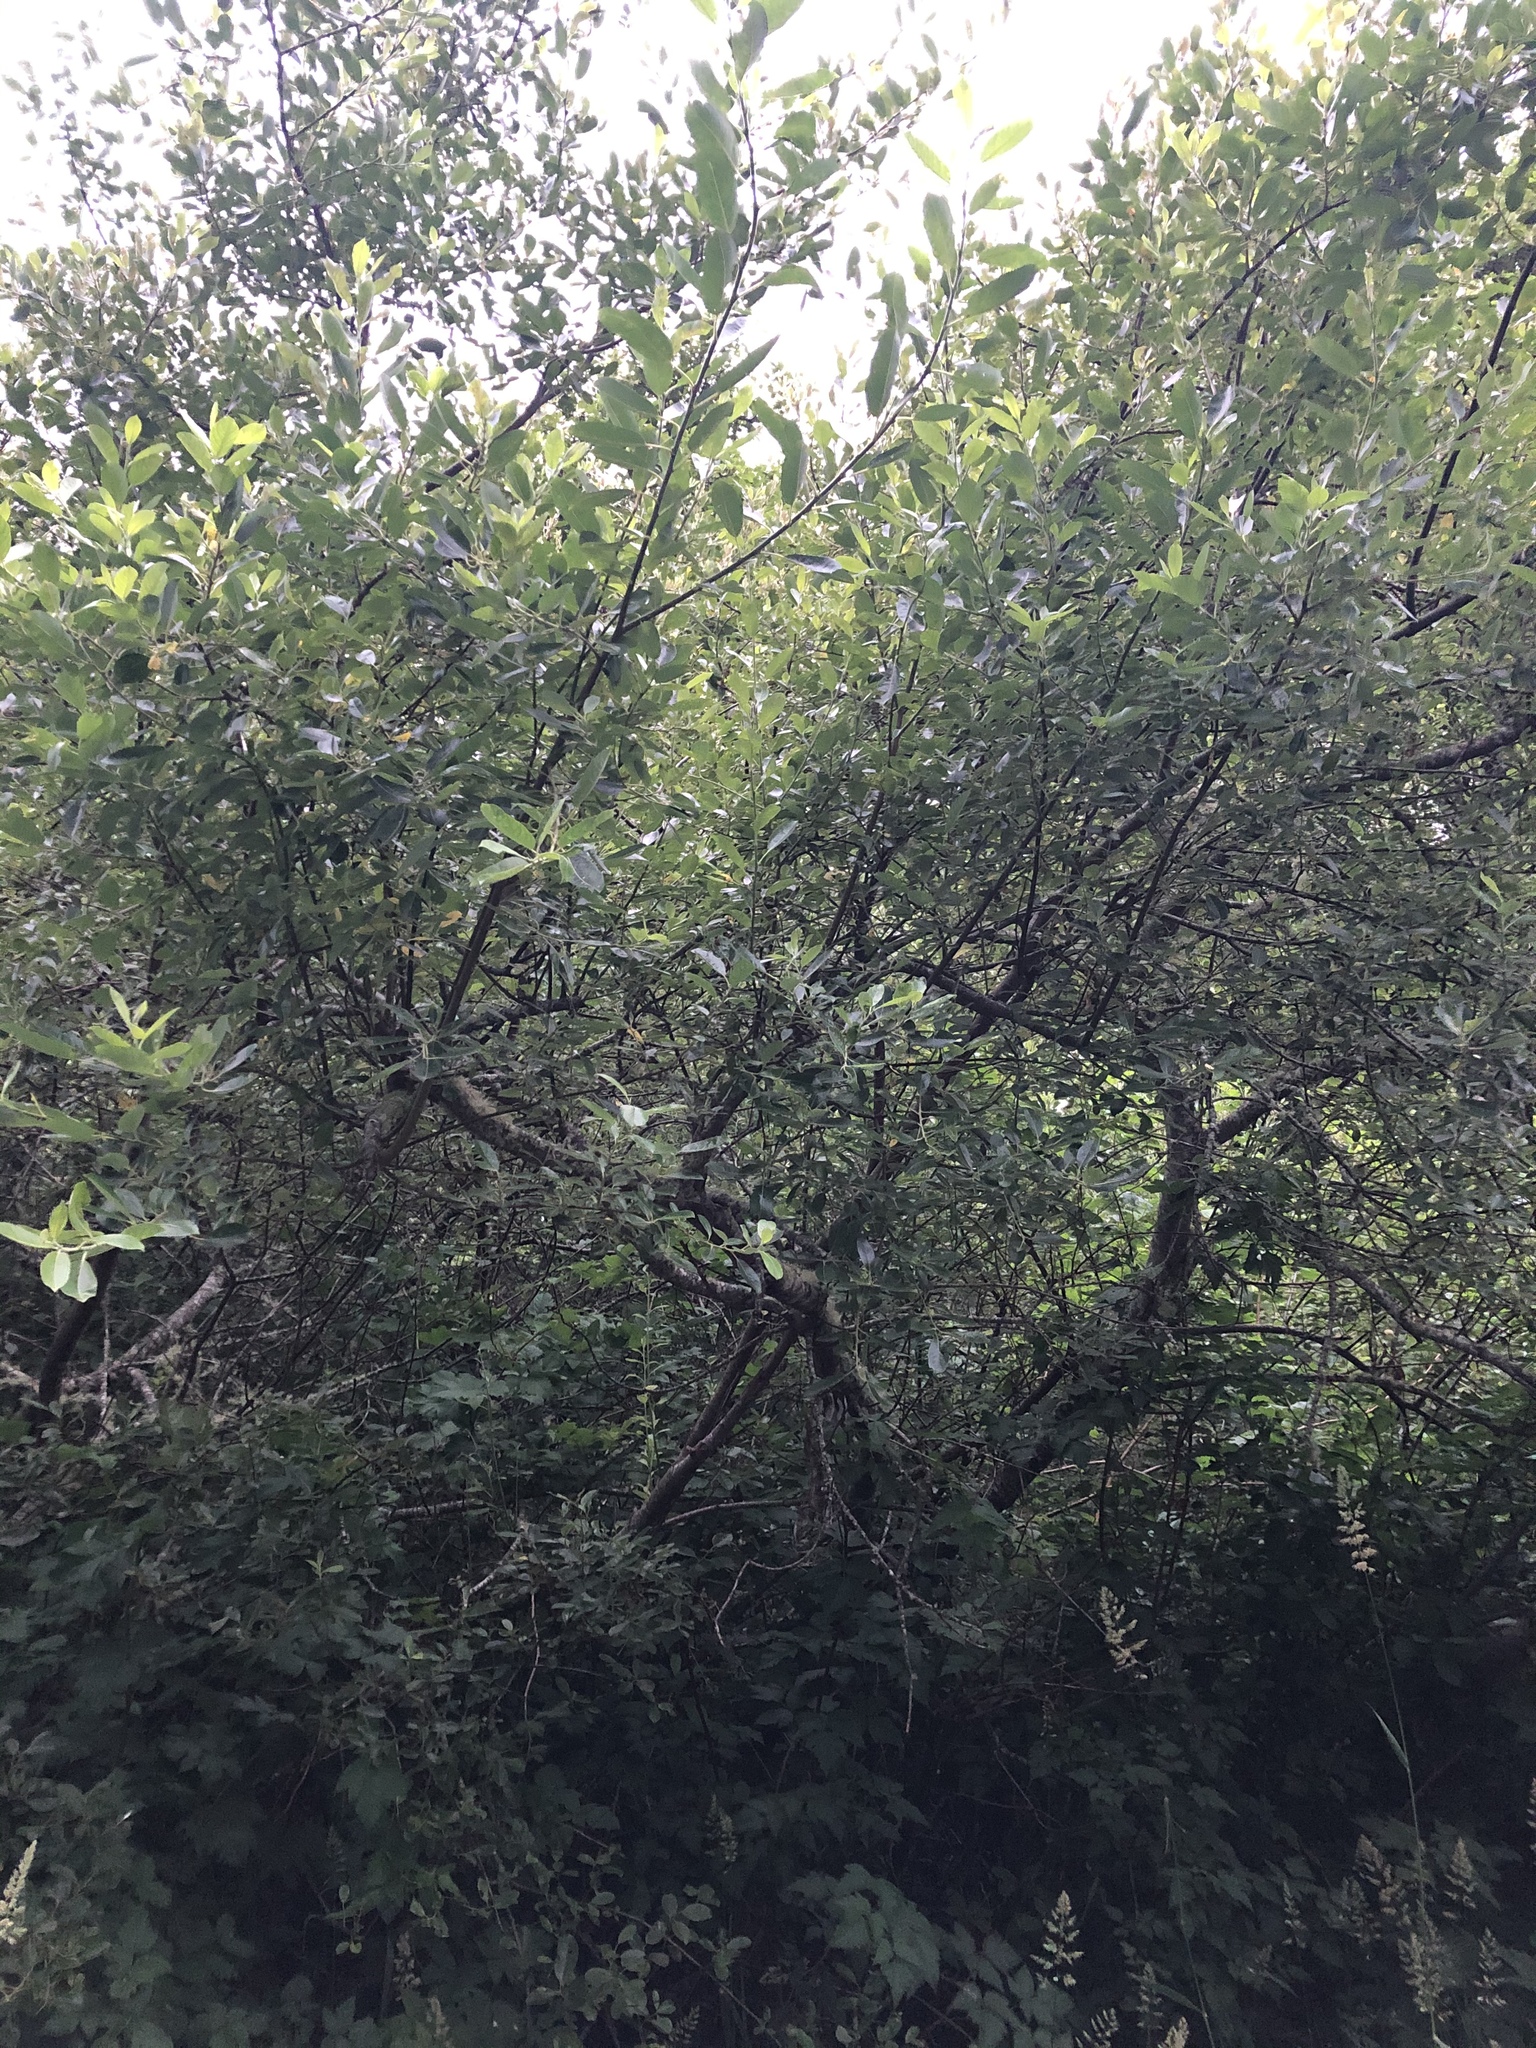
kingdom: Plantae
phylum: Tracheophyta
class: Magnoliopsida
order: Malpighiales
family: Salicaceae
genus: Salix
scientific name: Salix hookeriana
